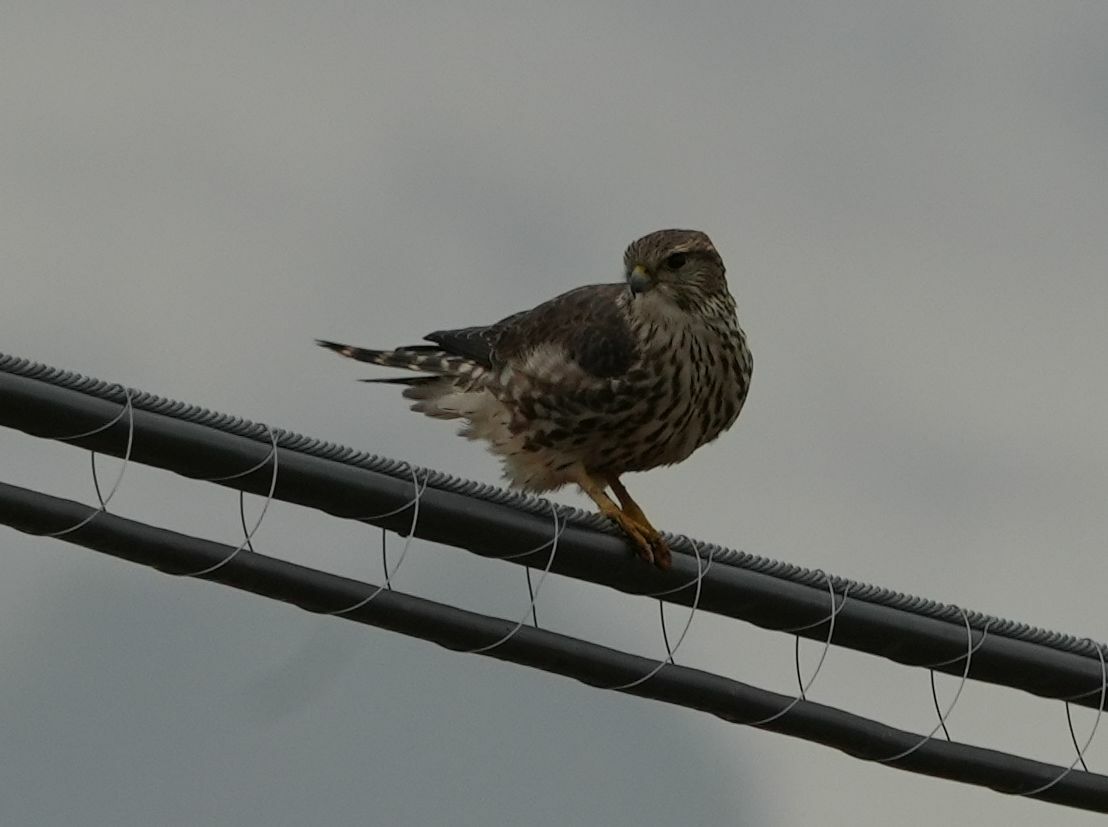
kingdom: Animalia
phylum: Chordata
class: Aves
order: Falconiformes
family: Falconidae
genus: Falco
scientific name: Falco columbarius
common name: Merlin
